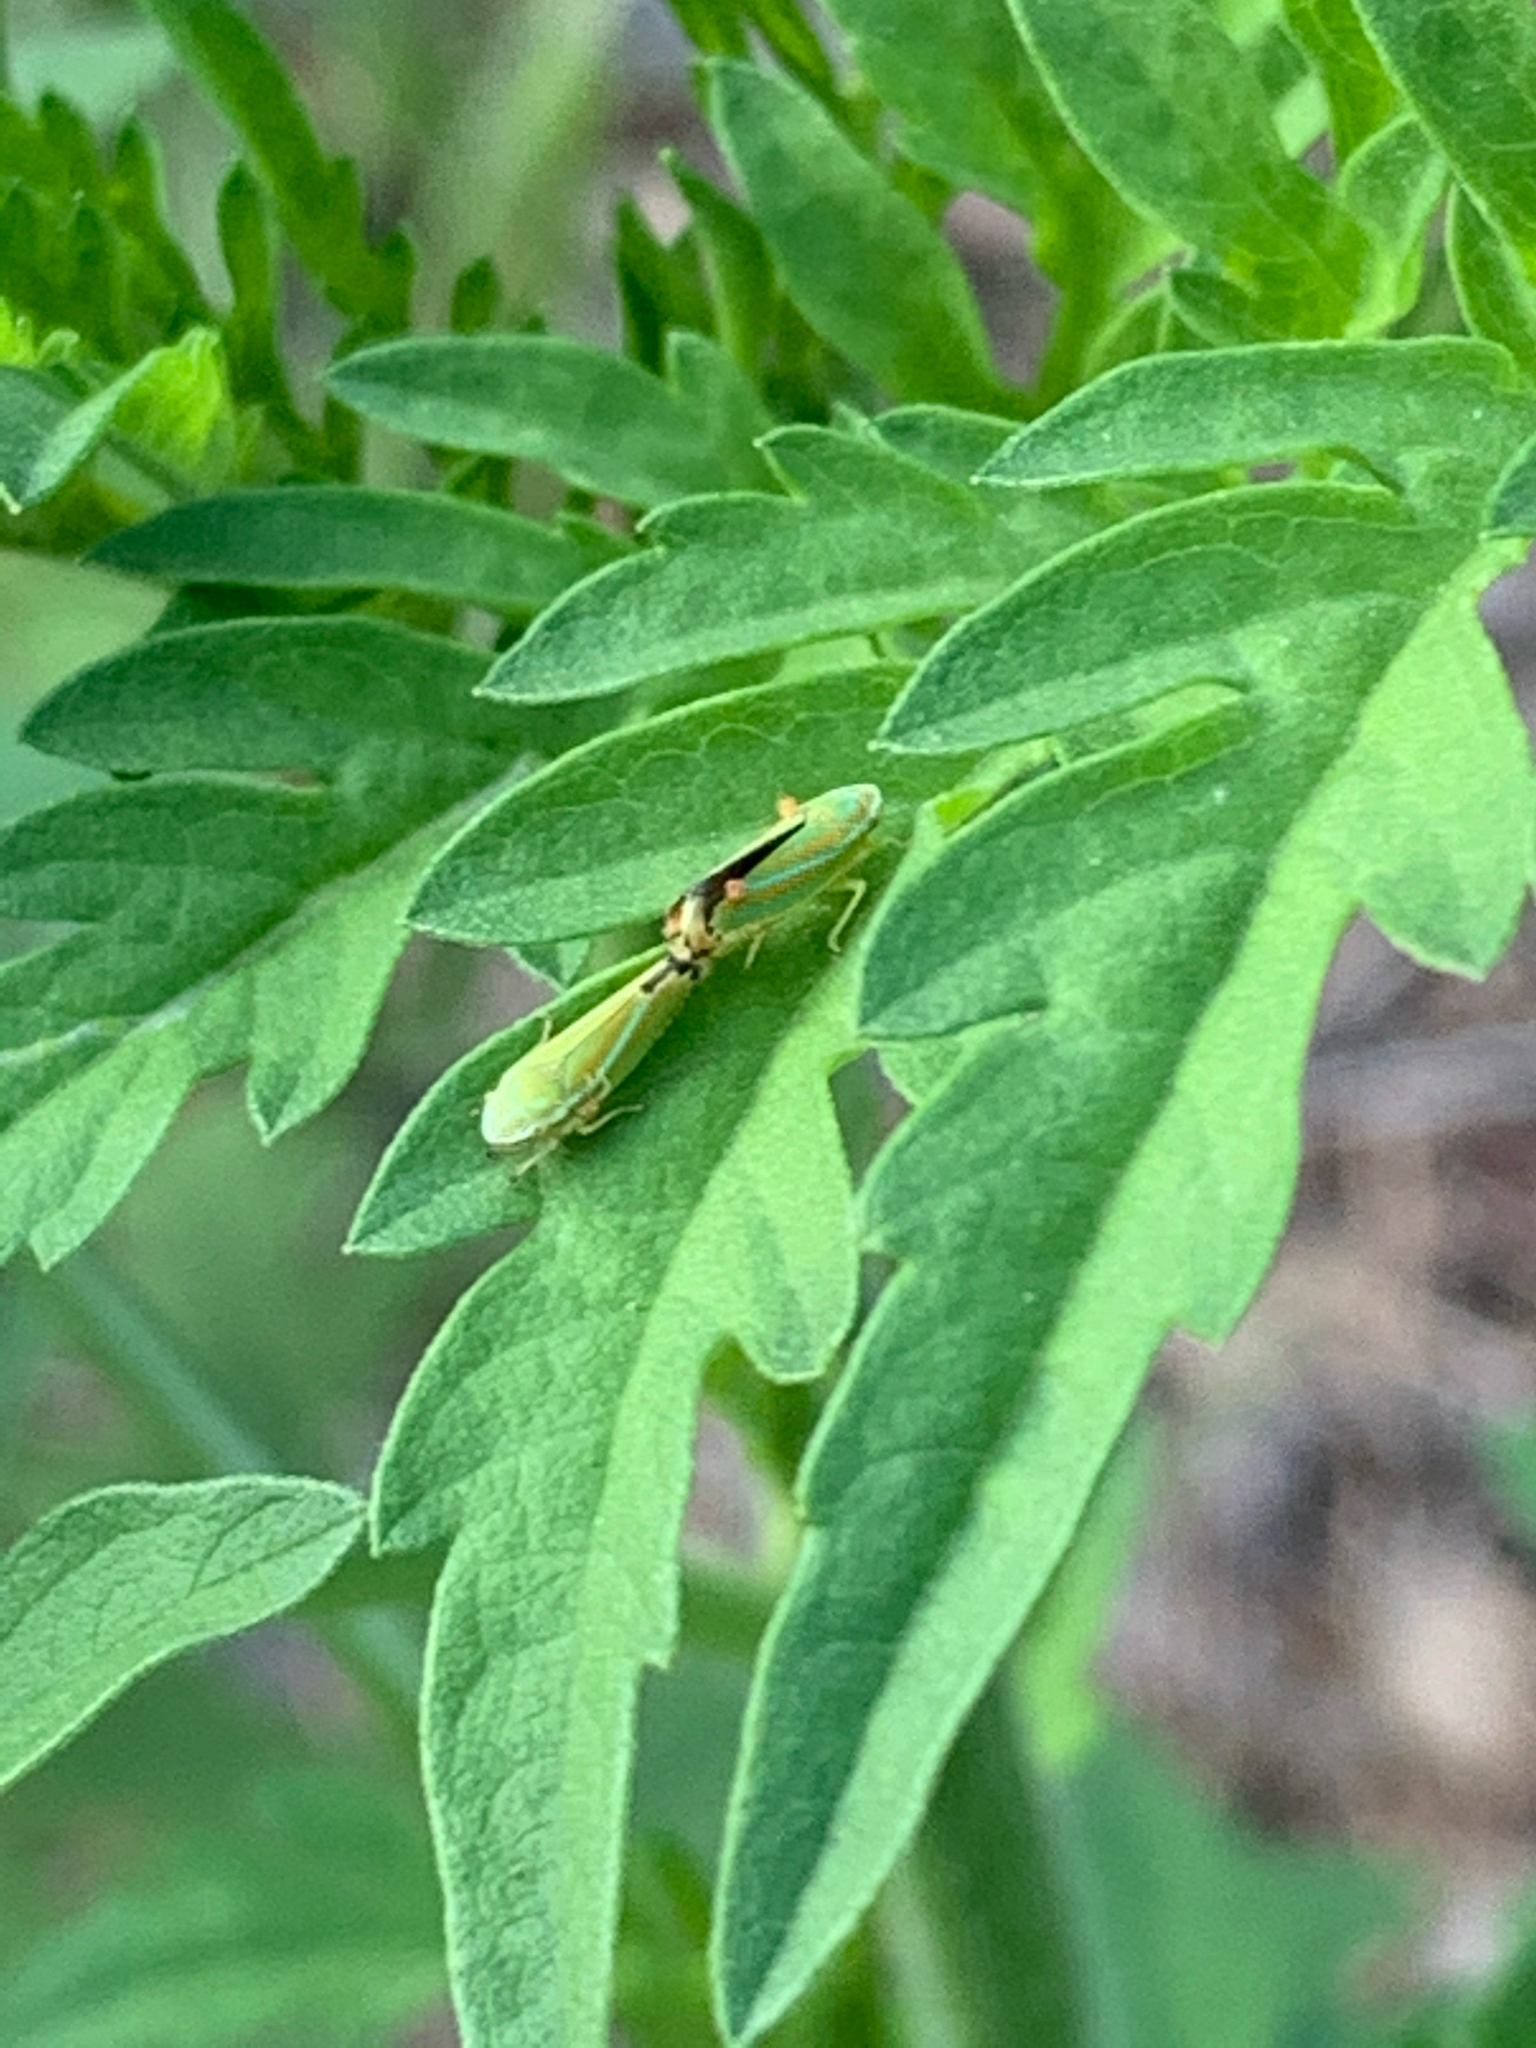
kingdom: Animalia
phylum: Arthropoda
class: Insecta
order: Hemiptera
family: Cicadellidae
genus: Graphocephala
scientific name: Graphocephala versuta
